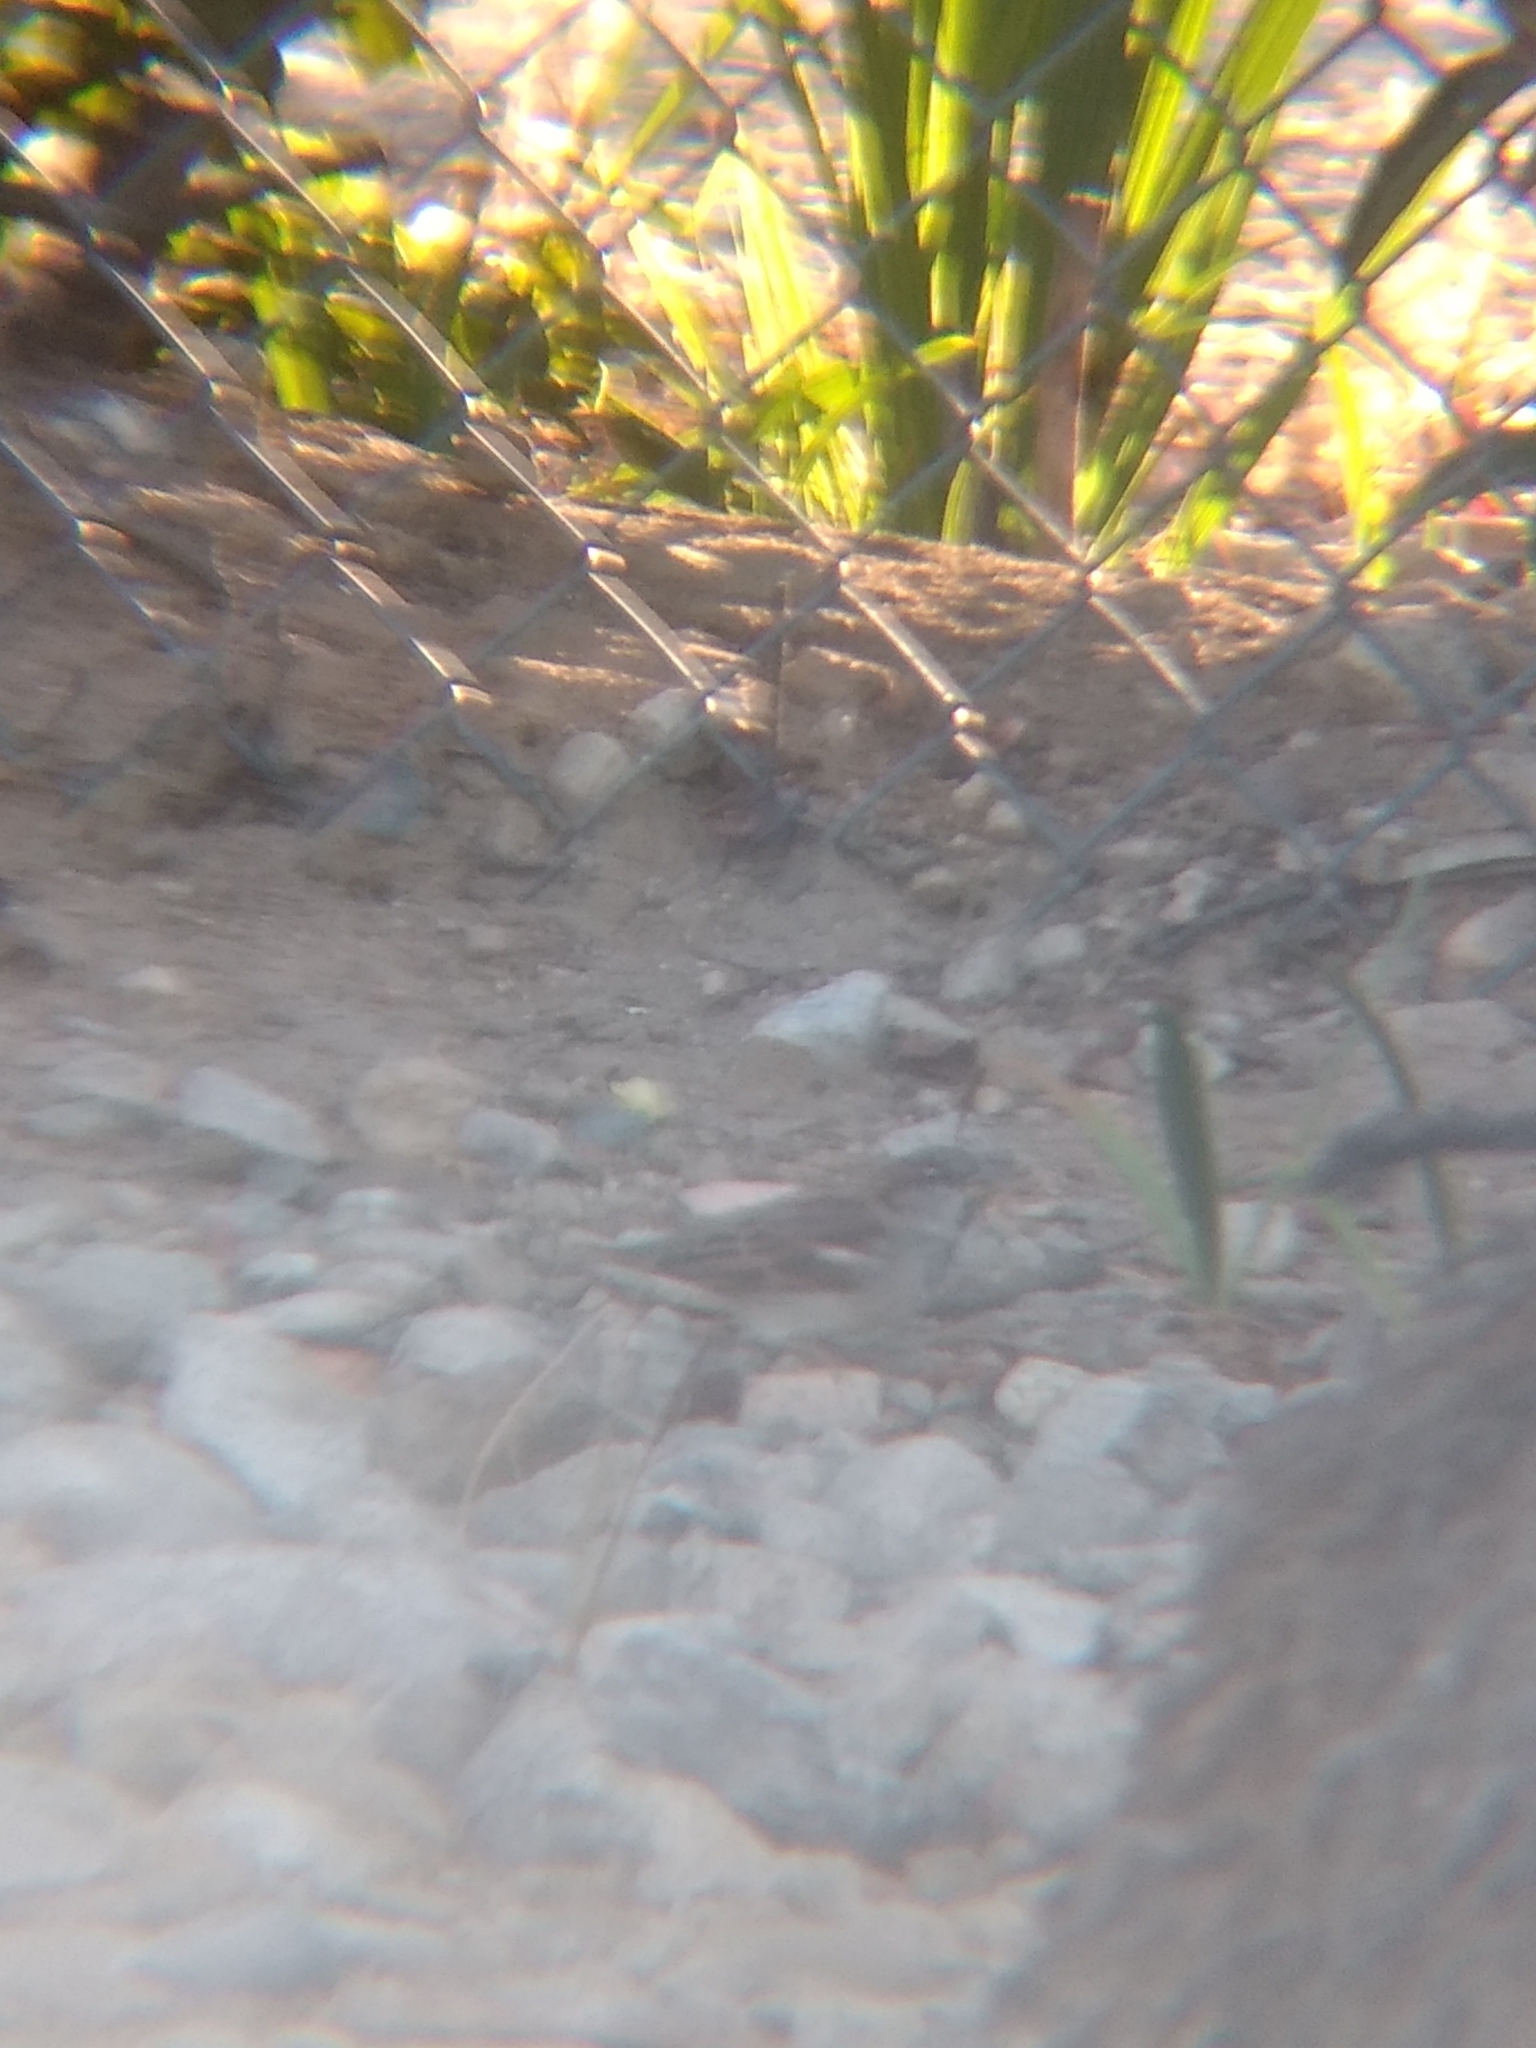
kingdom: Animalia
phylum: Chordata
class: Aves
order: Passeriformes
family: Passeridae
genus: Passer
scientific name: Passer domesticus
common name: House sparrow
